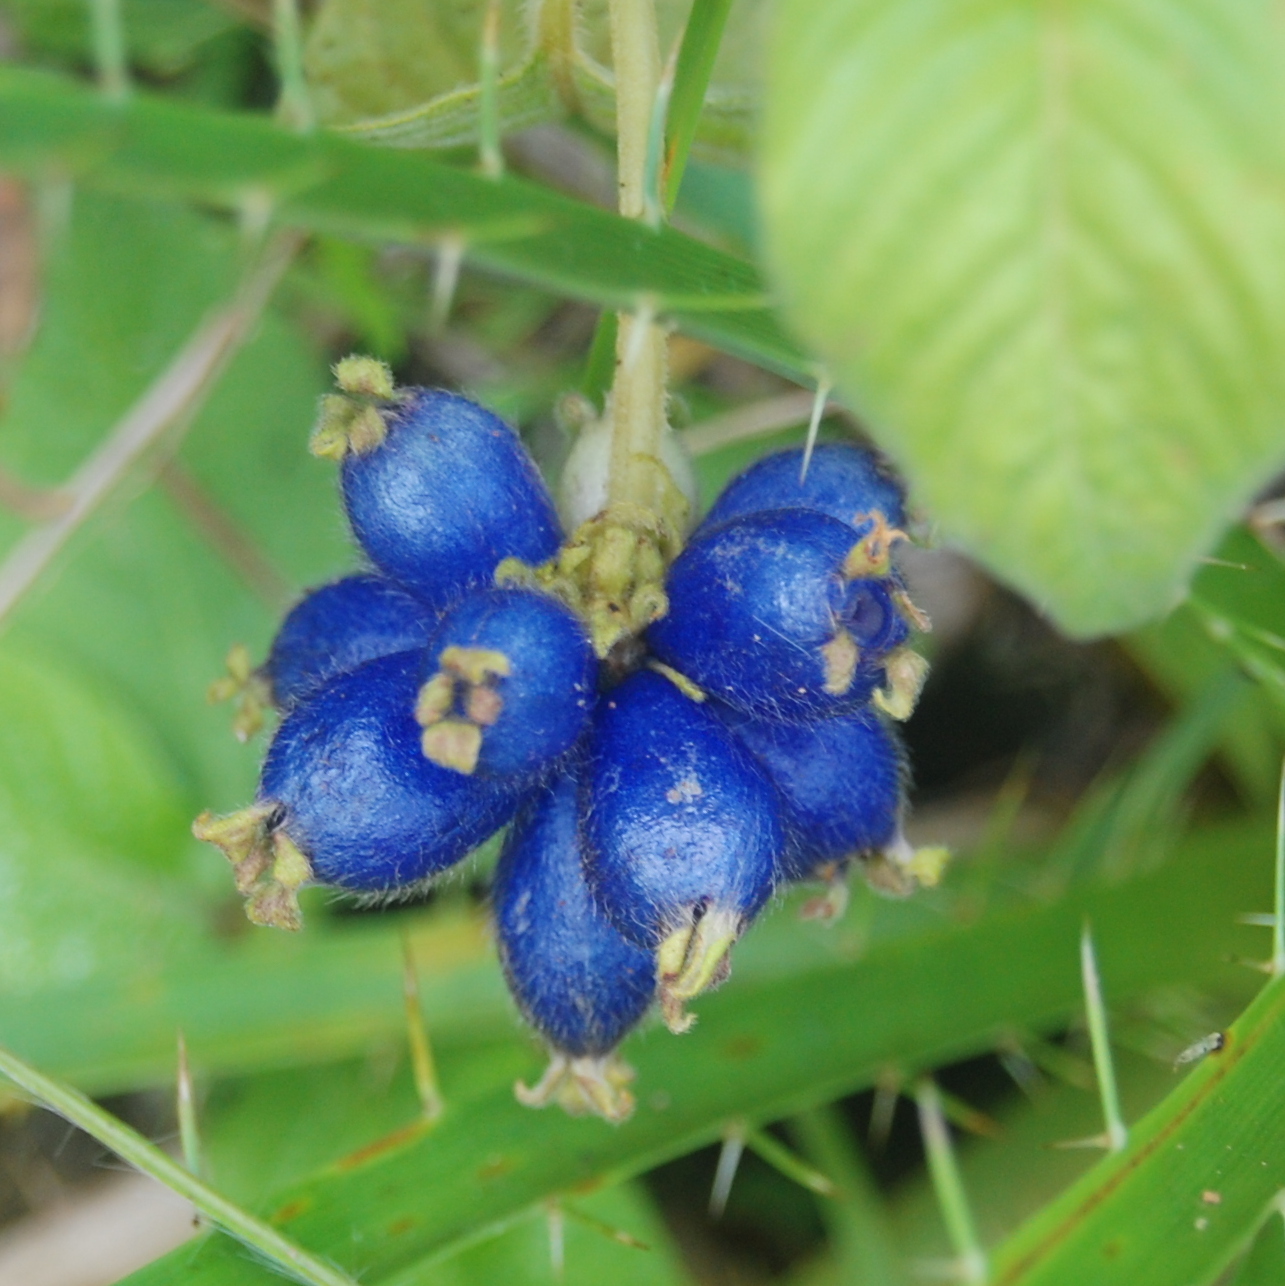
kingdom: Plantae
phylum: Tracheophyta
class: Magnoliopsida
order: Gentianales
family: Rubiaceae
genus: Coccocypselum
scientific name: Coccocypselum lanceolatum
